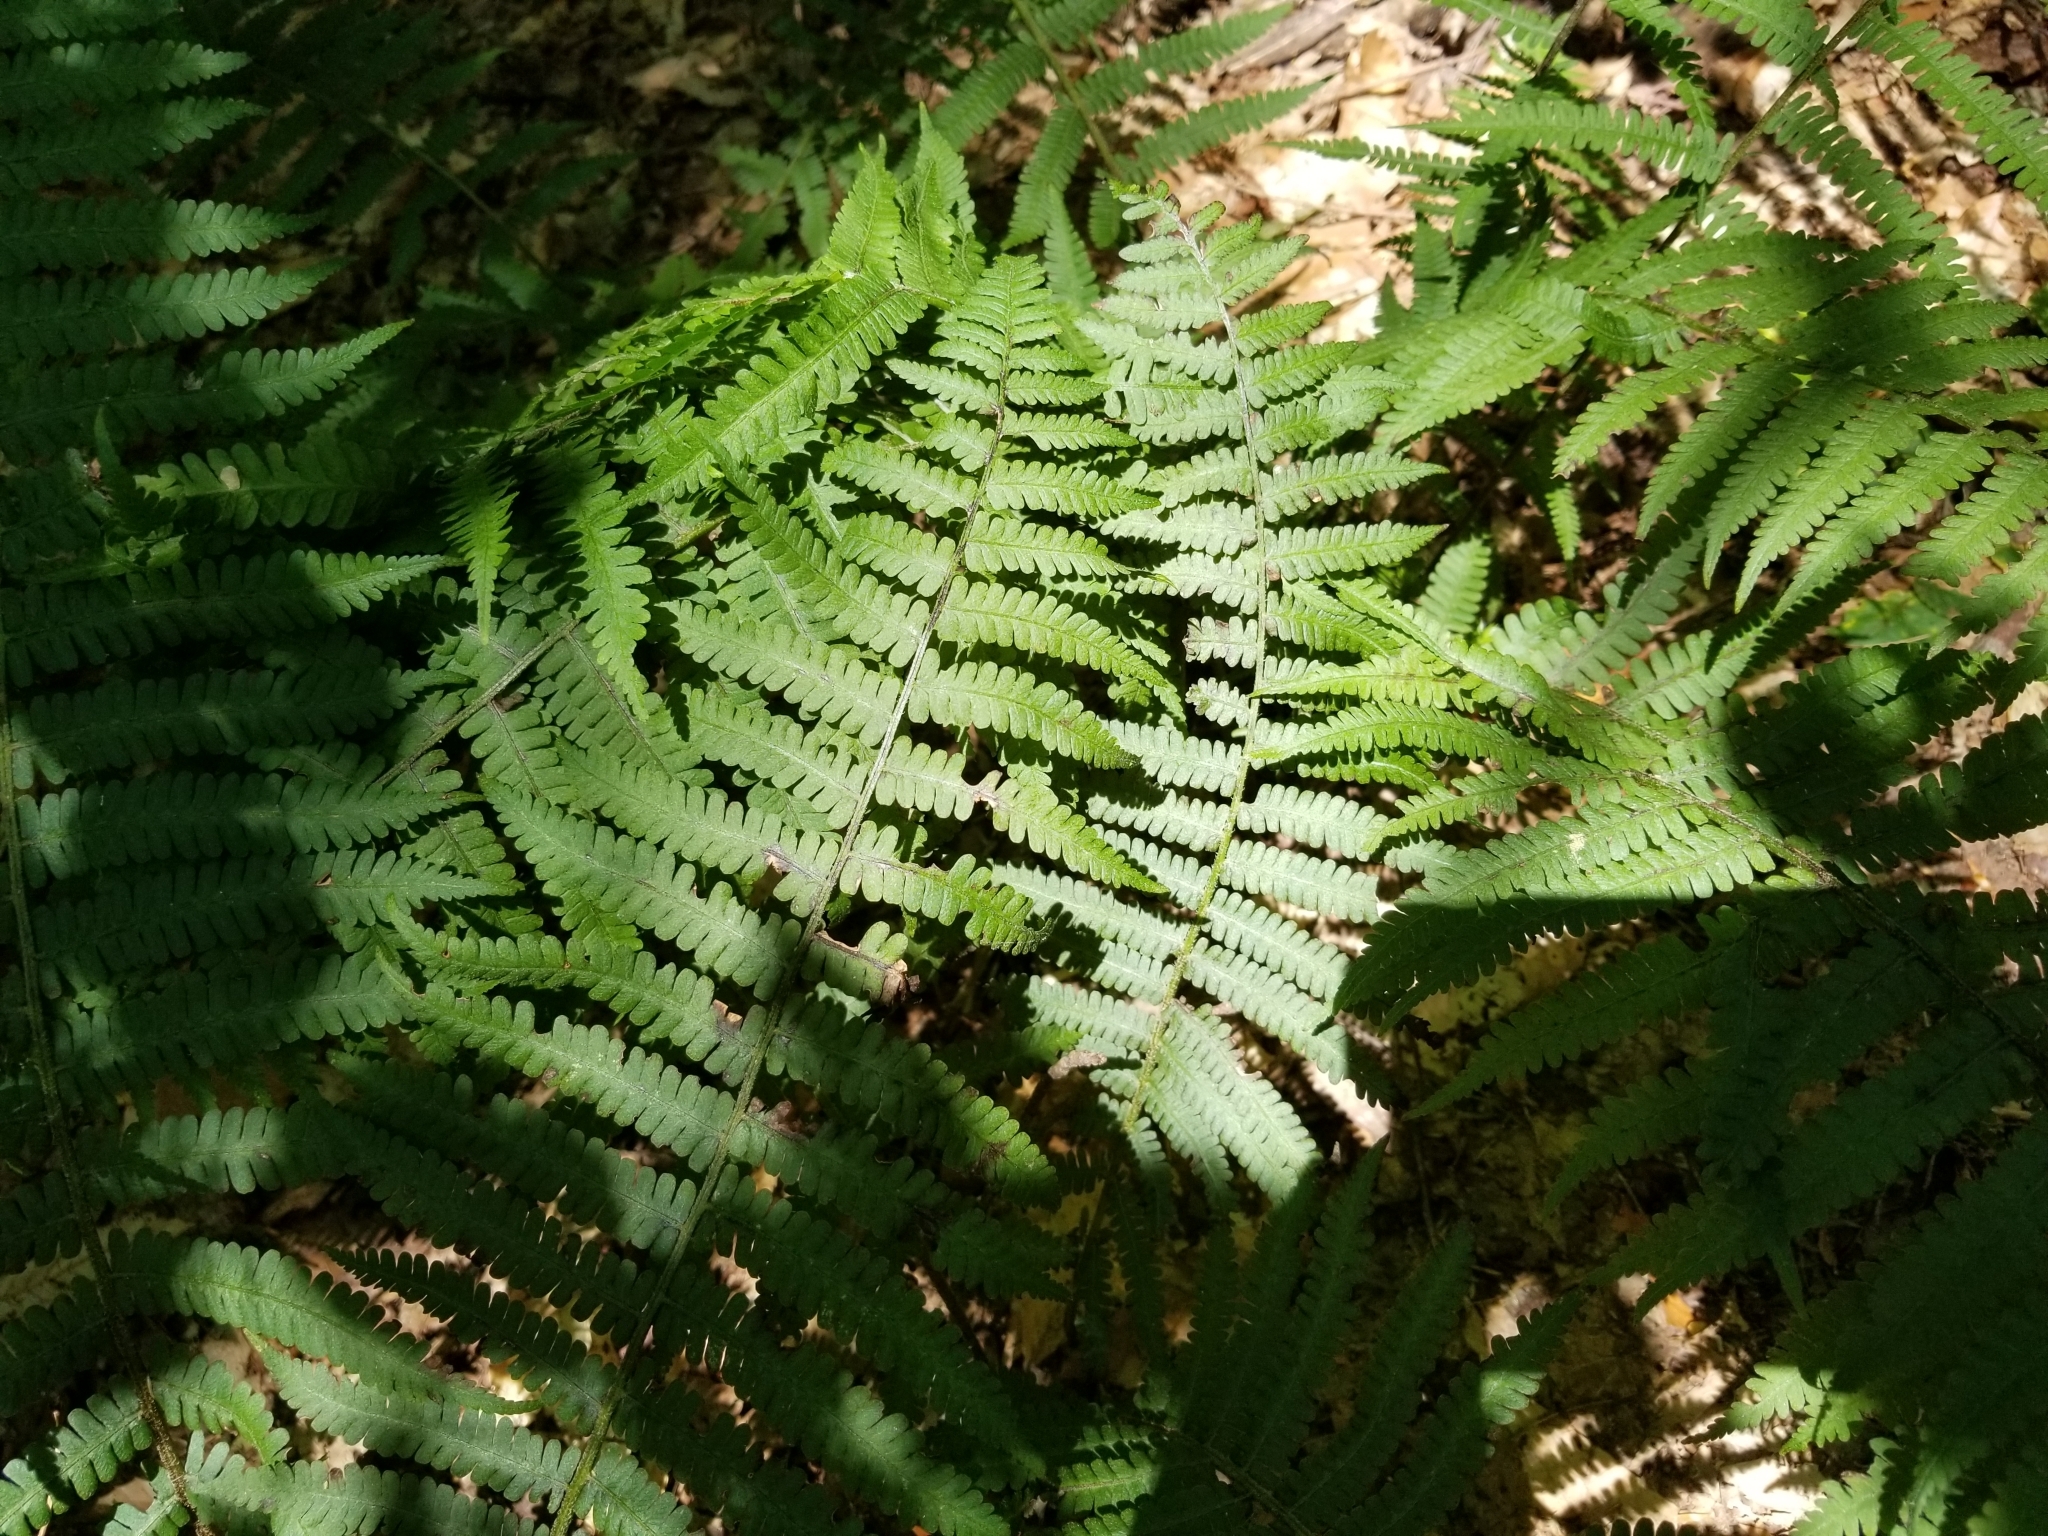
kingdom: Plantae
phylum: Tracheophyta
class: Polypodiopsida
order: Polypodiales
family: Athyriaceae
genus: Deparia
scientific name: Deparia acrostichoides
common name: Silver false spleenwort
